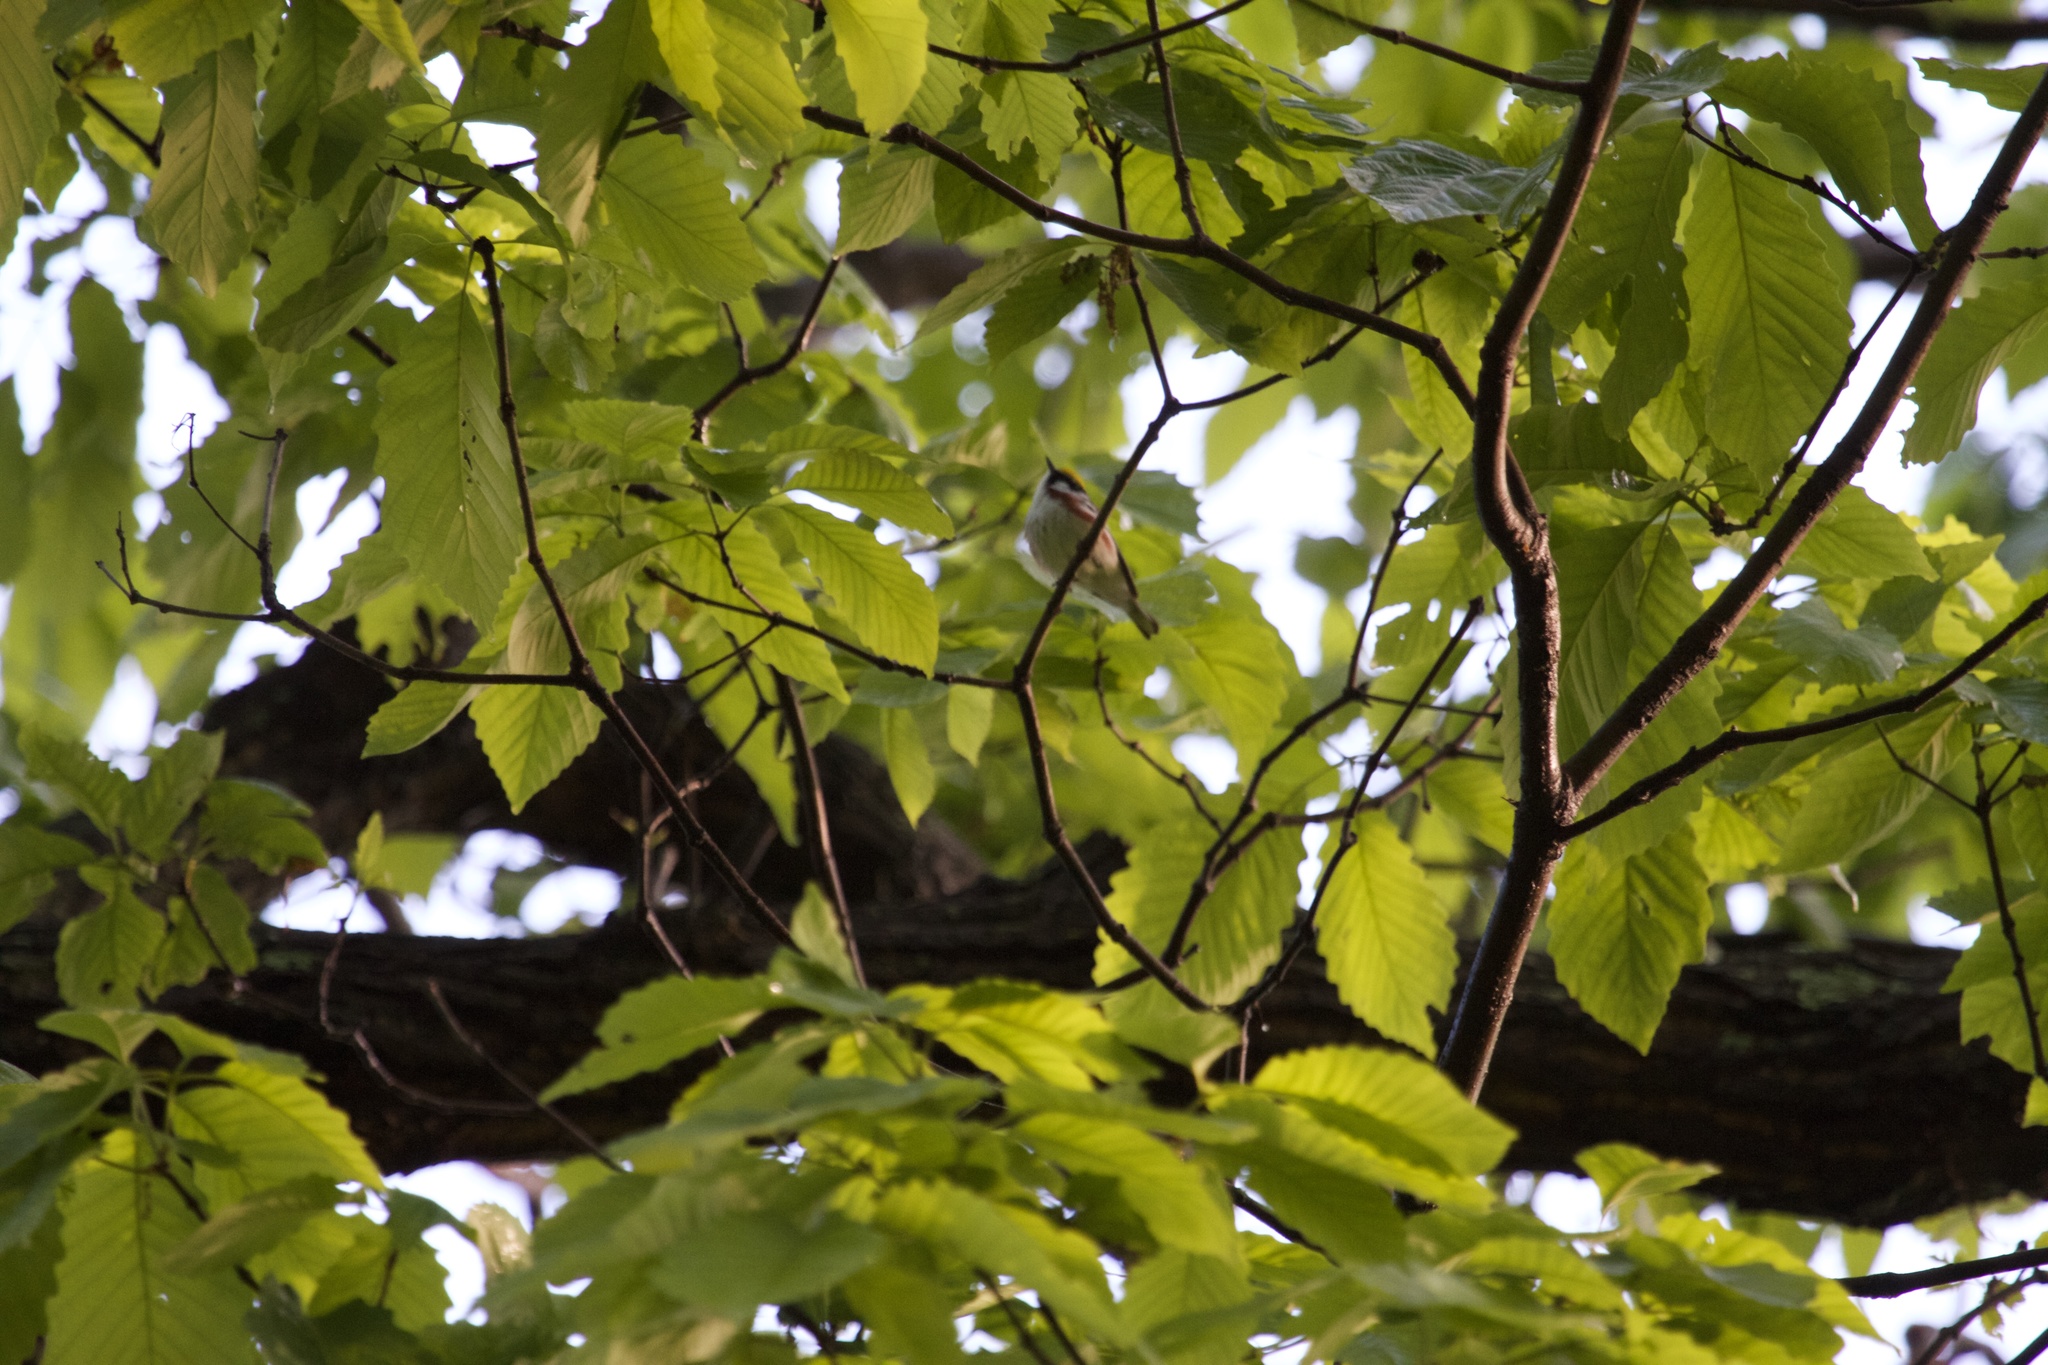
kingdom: Animalia
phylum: Chordata
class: Aves
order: Passeriformes
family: Parulidae
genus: Setophaga
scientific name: Setophaga pensylvanica
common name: Chestnut-sided warbler
